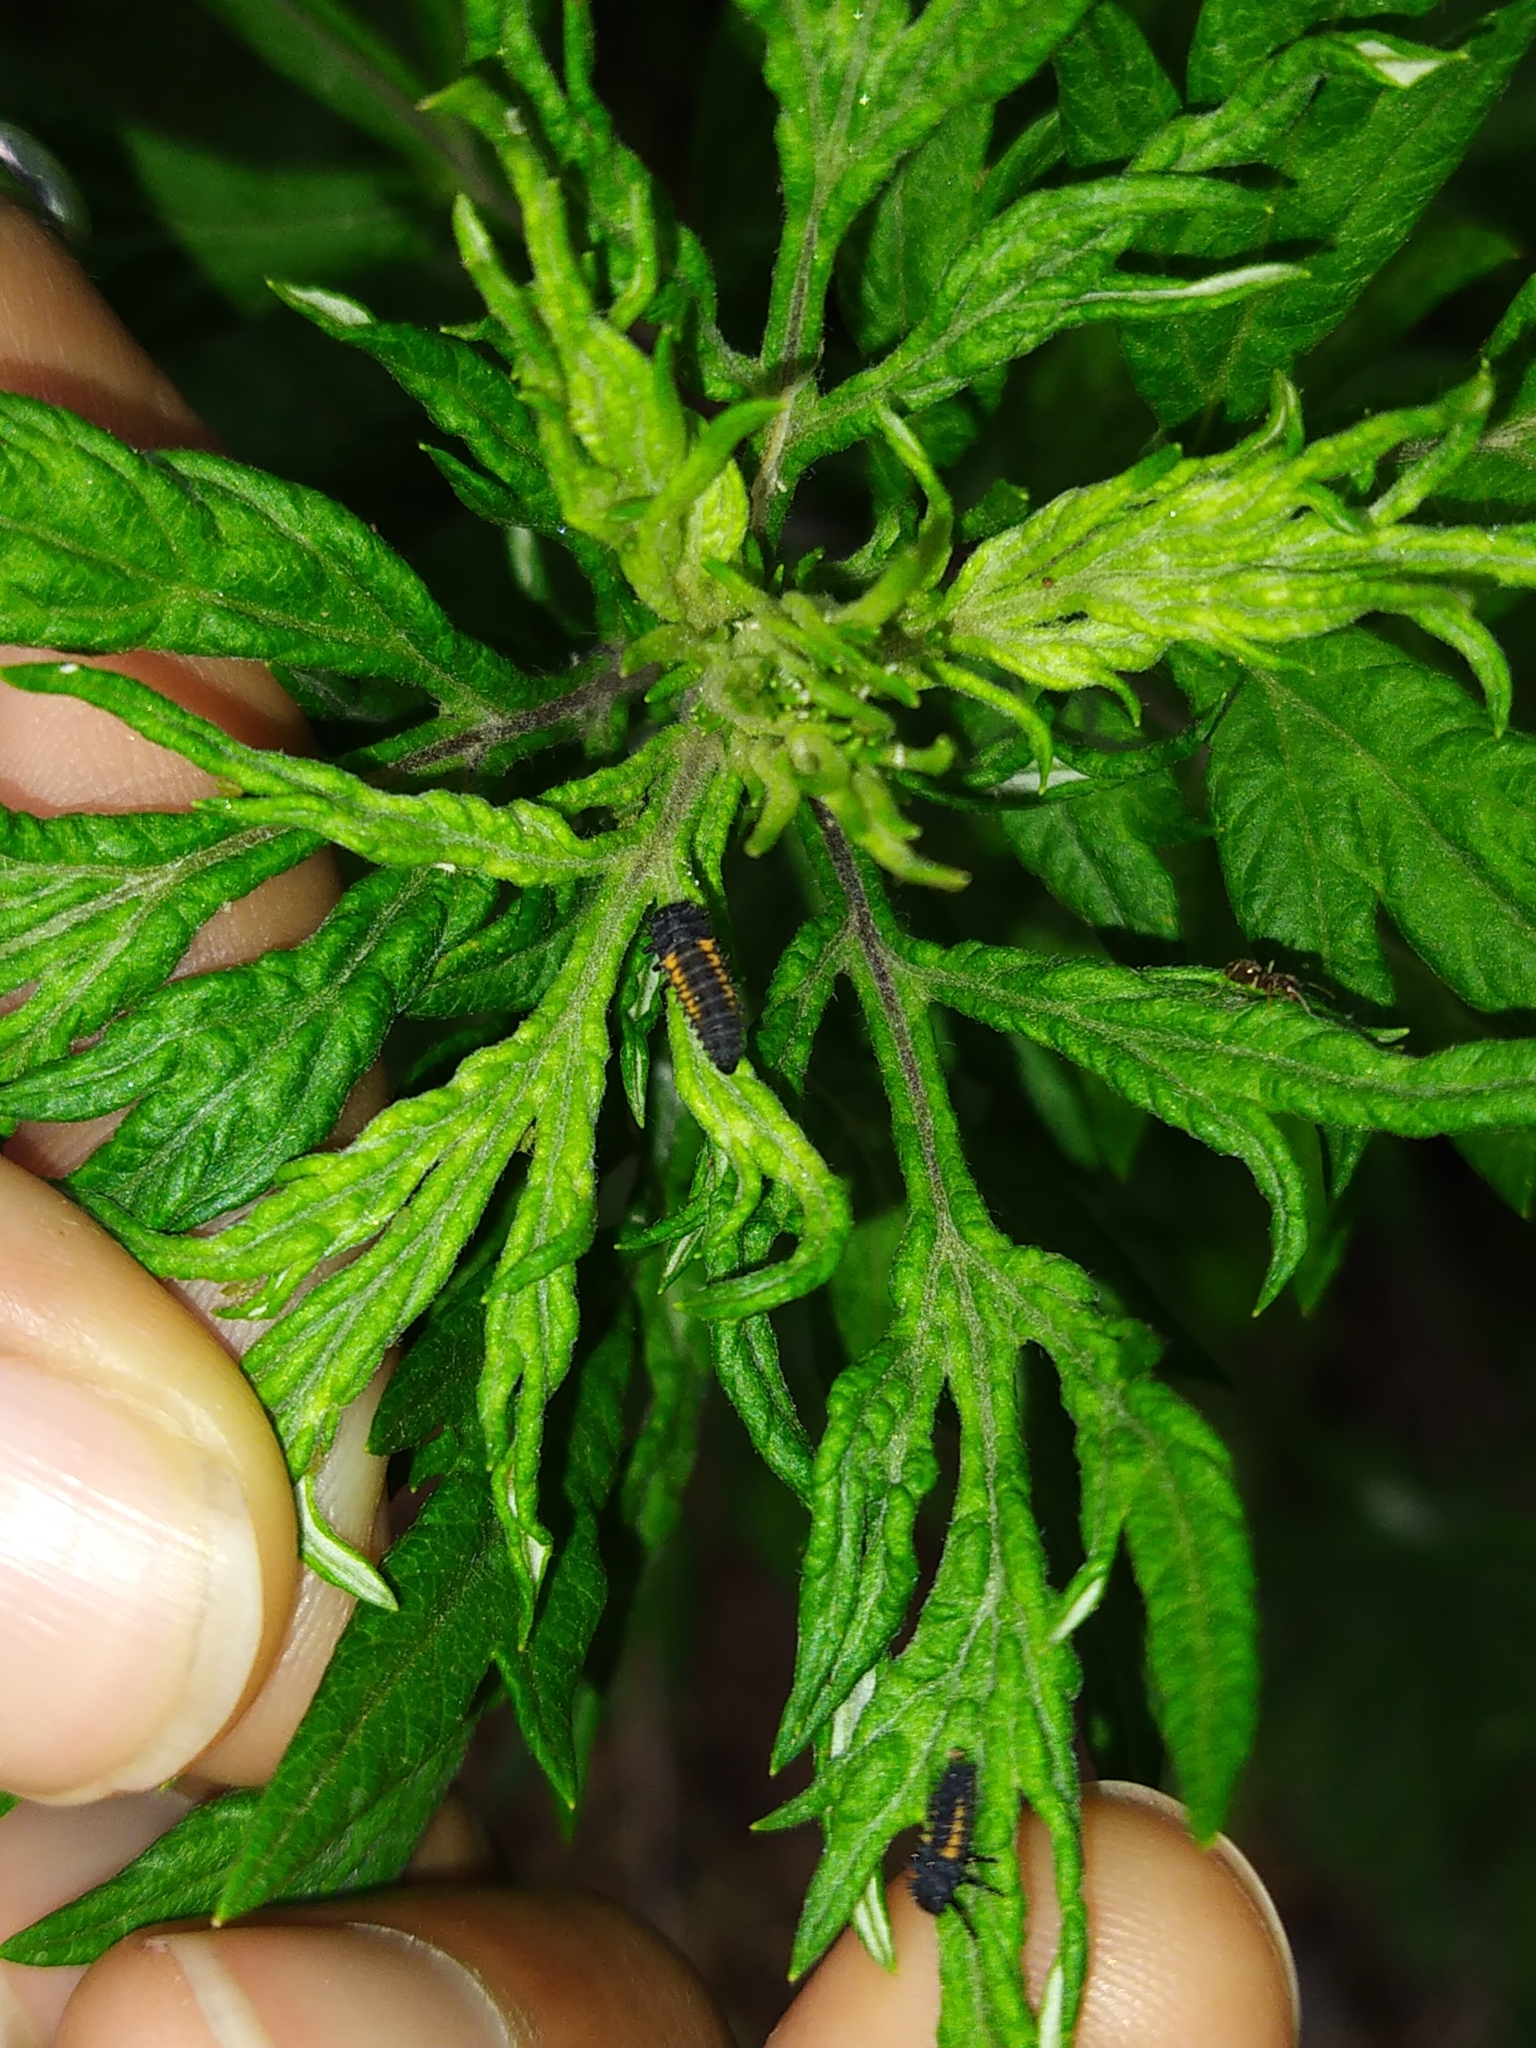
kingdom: Animalia
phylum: Arthropoda
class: Insecta
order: Coleoptera
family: Coccinellidae
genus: Harmonia
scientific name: Harmonia axyridis
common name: Harlequin ladybird
